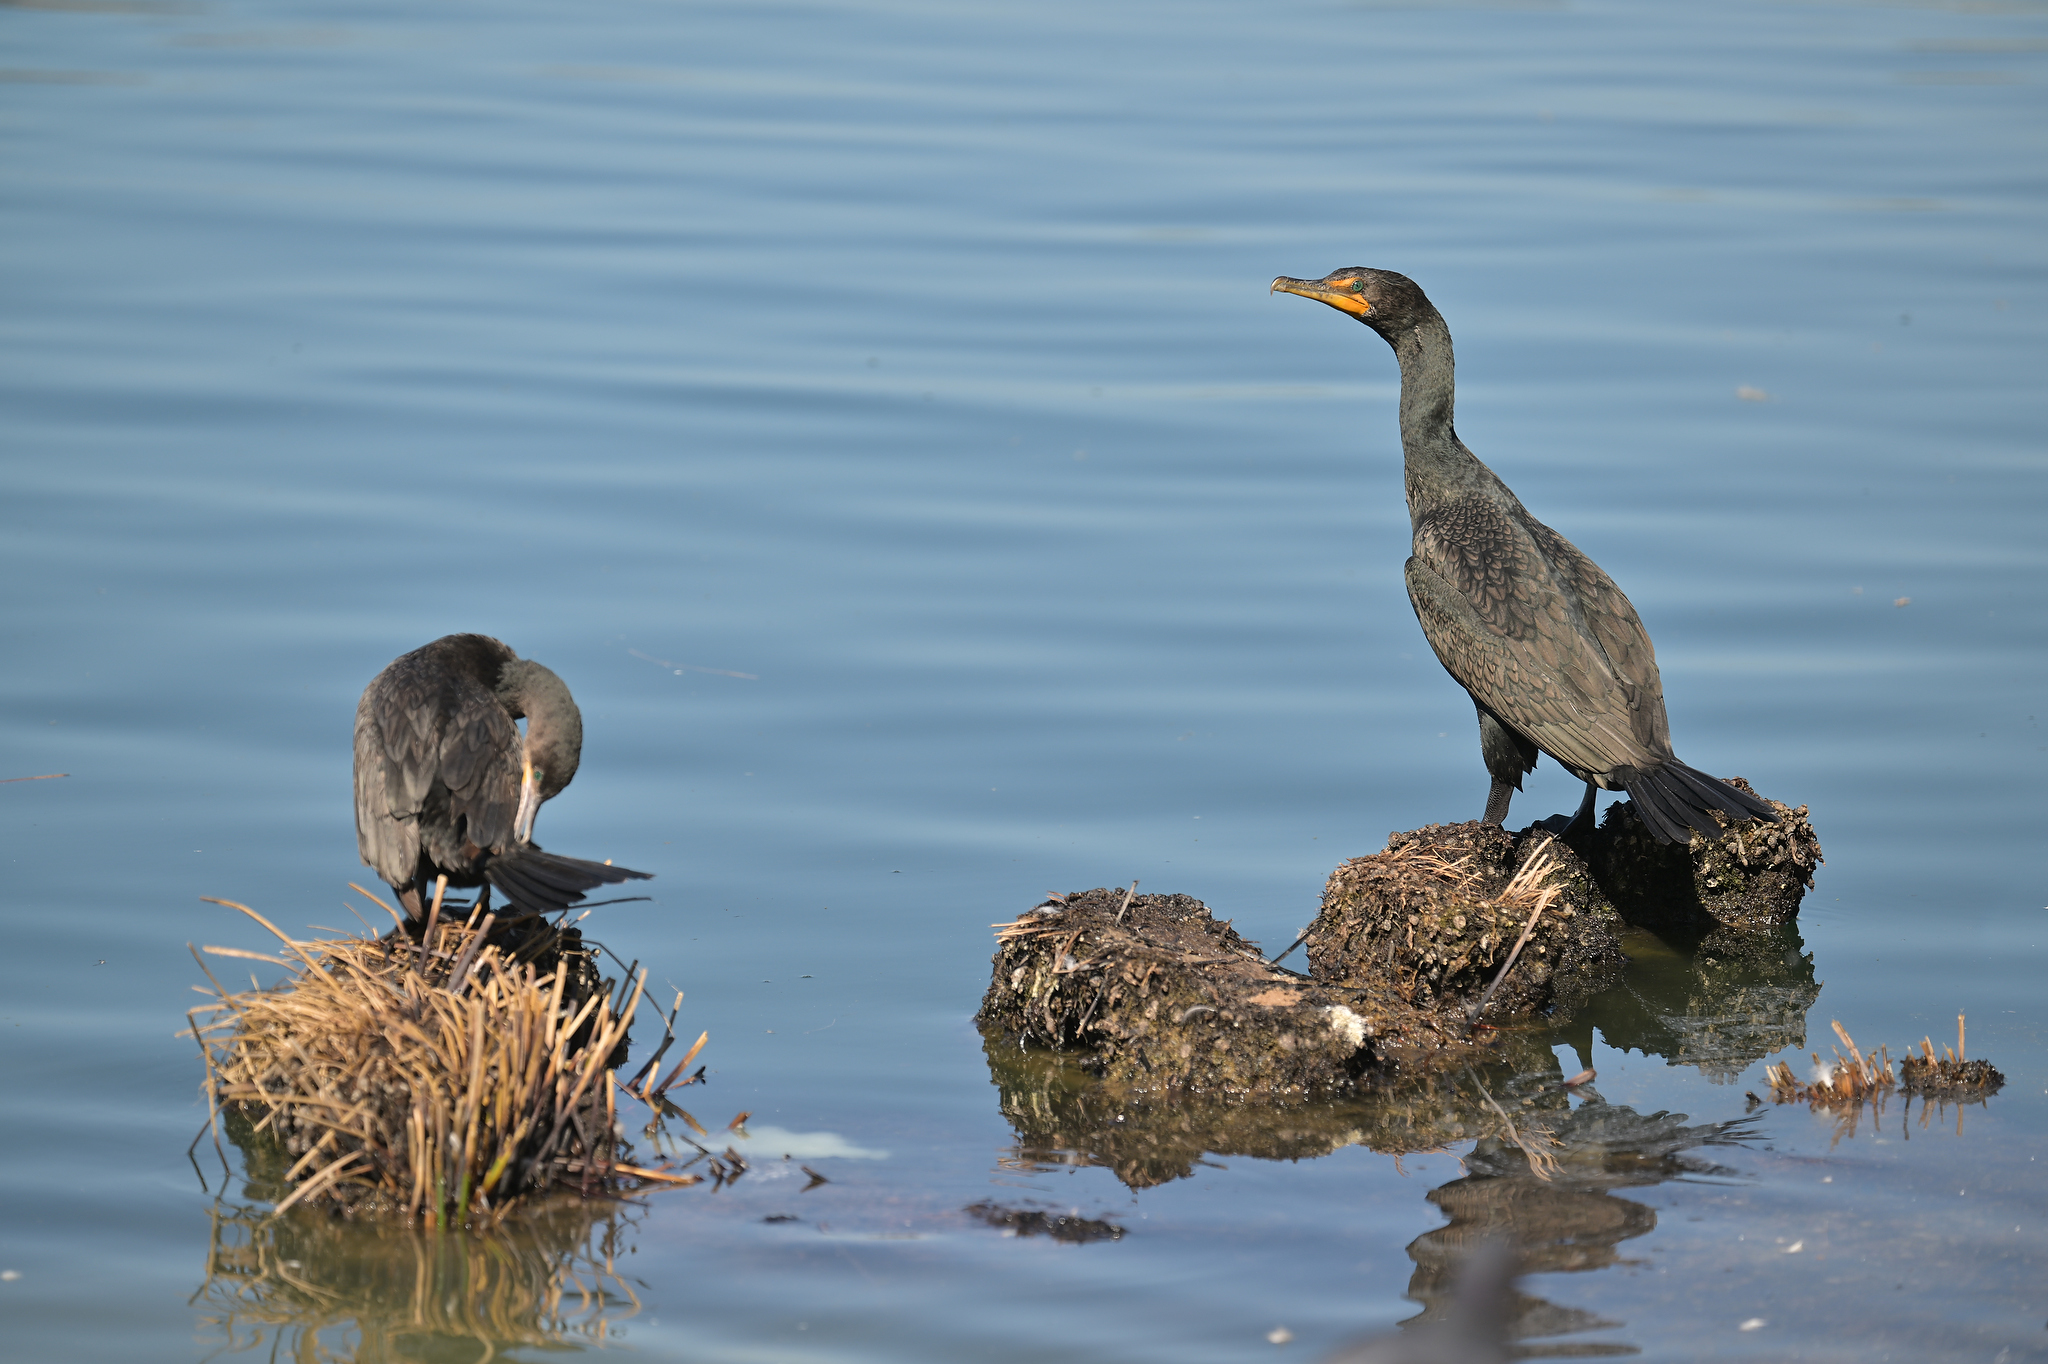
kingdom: Animalia
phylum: Chordata
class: Aves
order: Suliformes
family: Phalacrocoracidae
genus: Phalacrocorax
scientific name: Phalacrocorax auritus
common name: Double-crested cormorant
